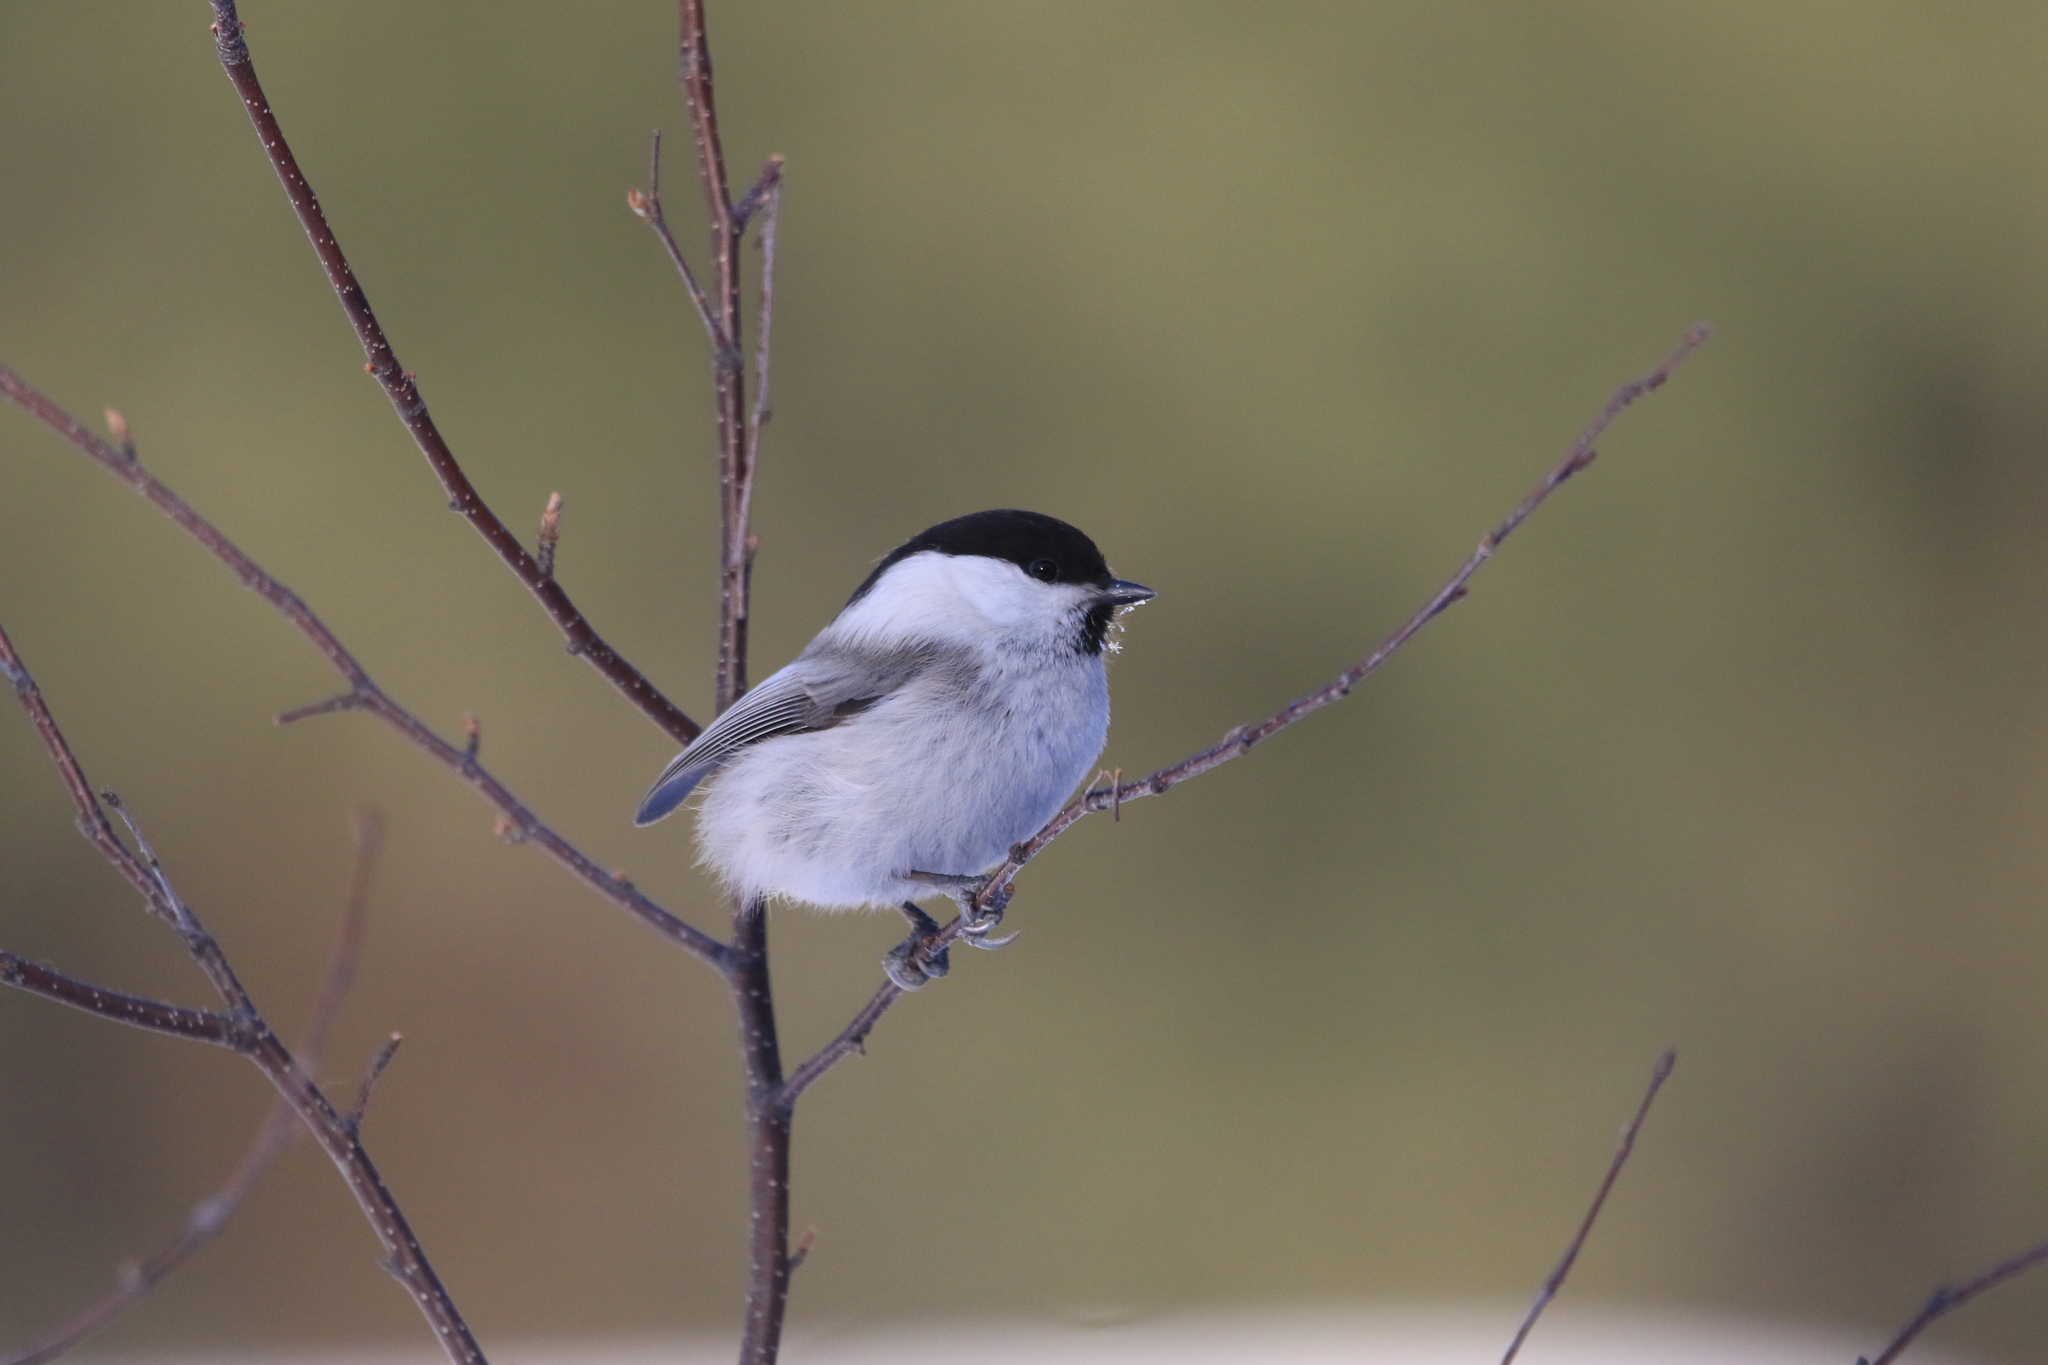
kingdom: Animalia
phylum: Chordata
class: Aves
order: Passeriformes
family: Paridae
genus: Poecile
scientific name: Poecile montanus
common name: Willow tit
